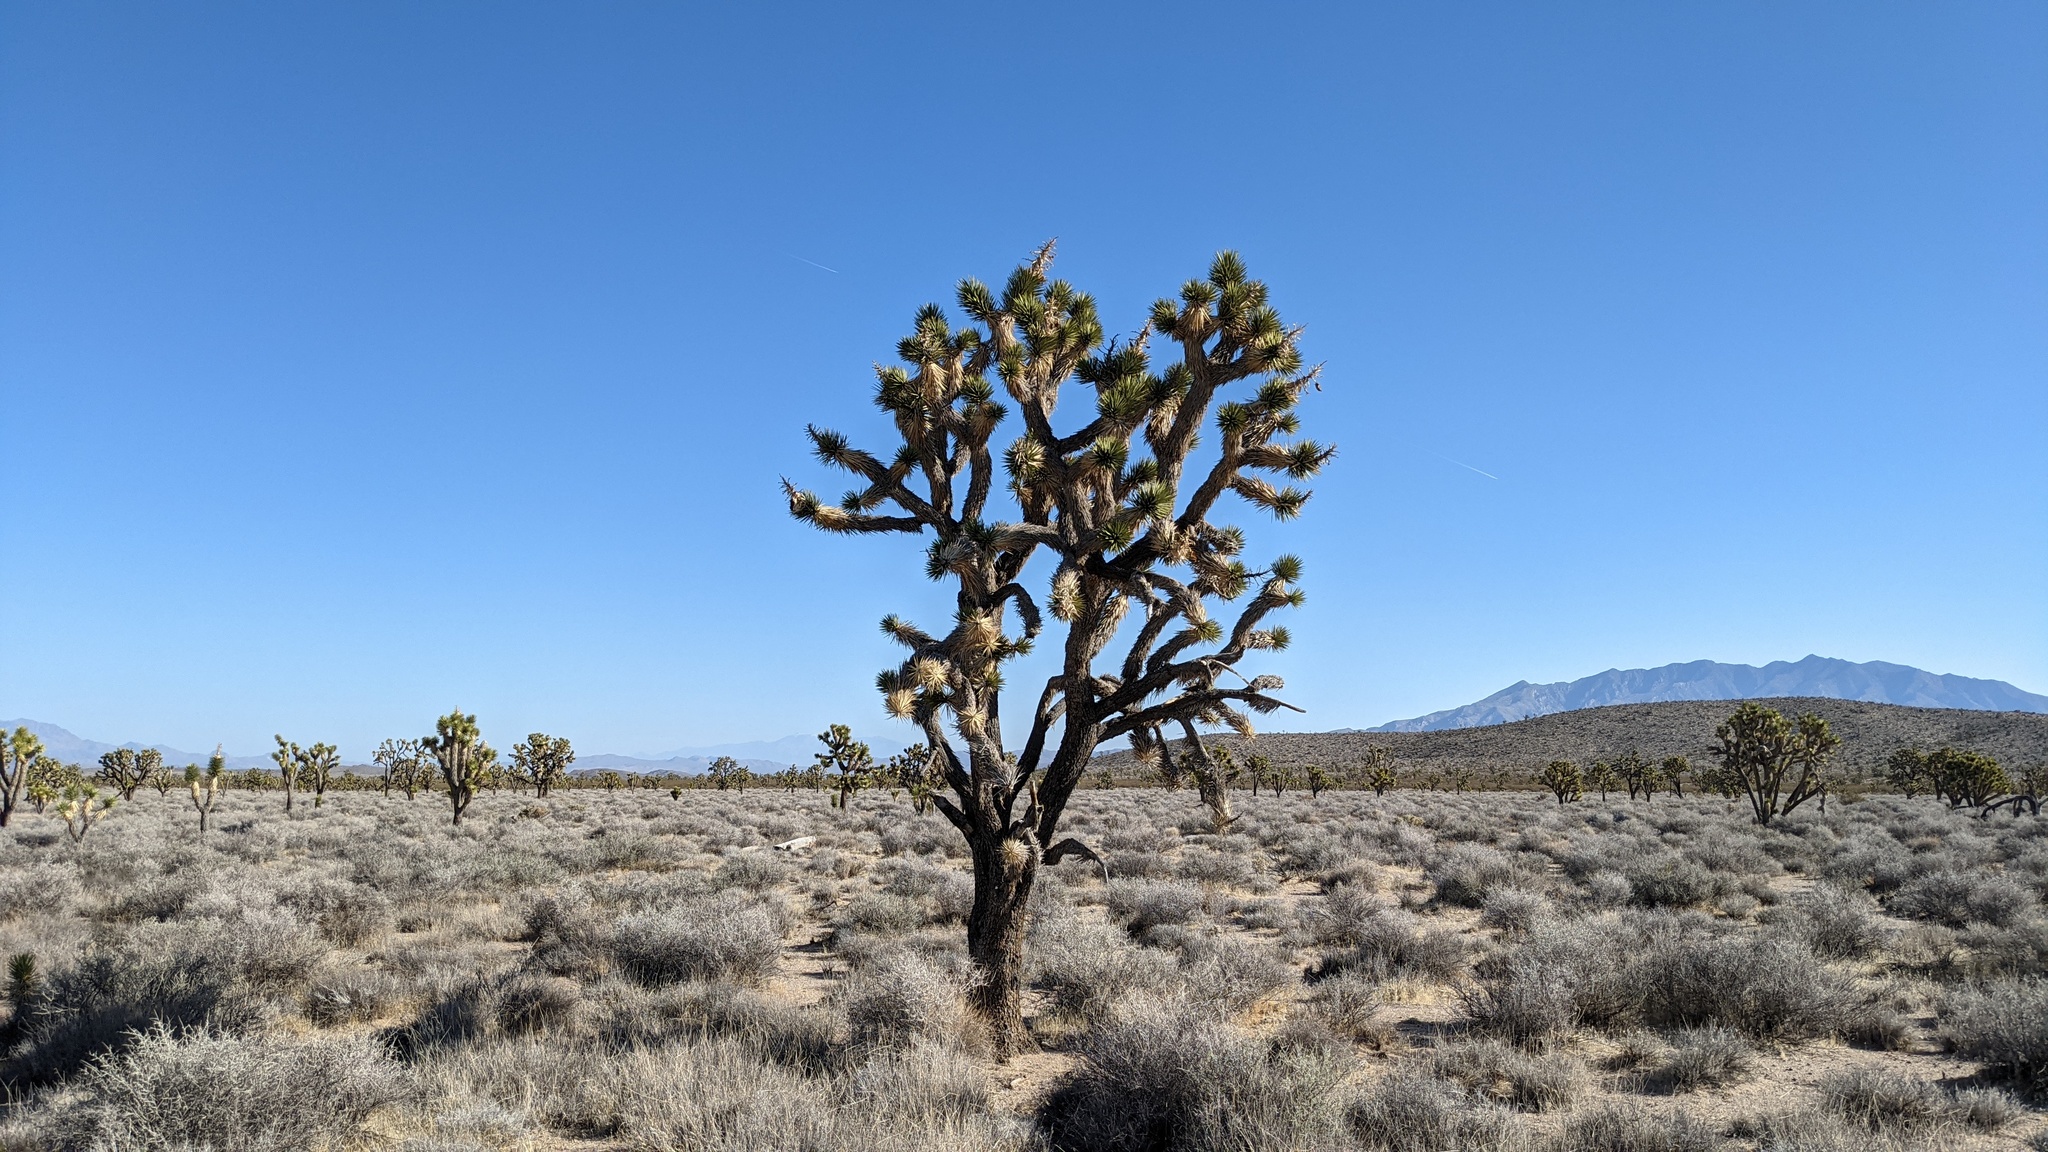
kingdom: Plantae
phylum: Tracheophyta
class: Liliopsida
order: Asparagales
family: Asparagaceae
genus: Yucca
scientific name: Yucca brevifolia
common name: Joshua tree
